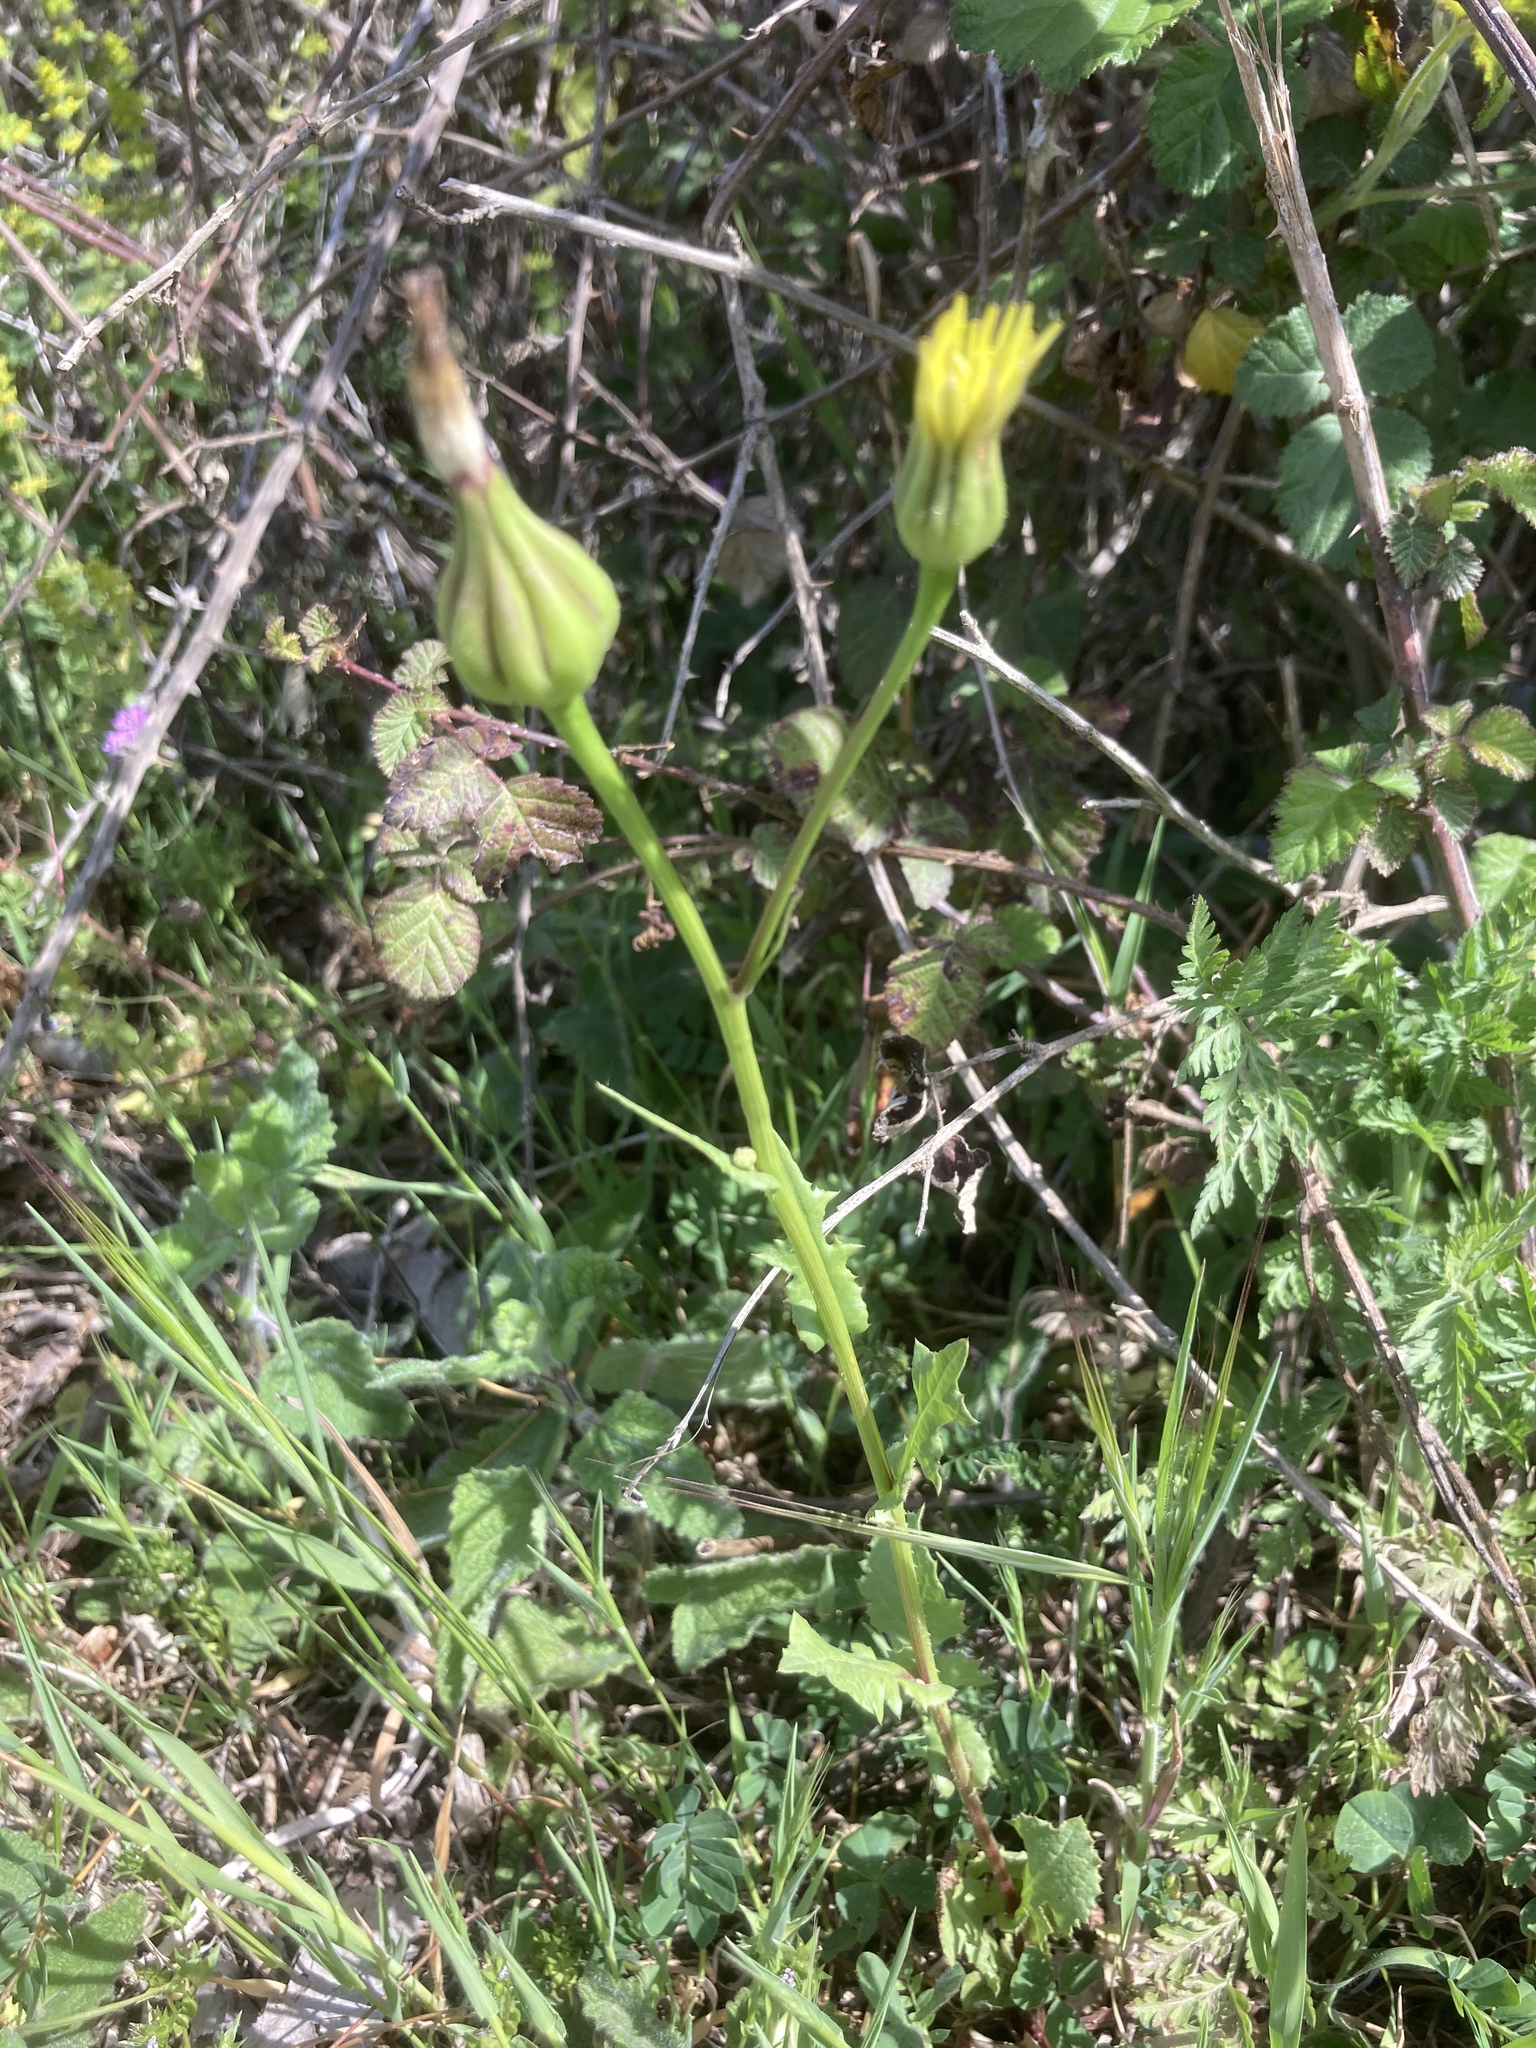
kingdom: Plantae
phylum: Tracheophyta
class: Magnoliopsida
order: Asterales
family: Asteraceae
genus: Urospermum
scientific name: Urospermum picroides
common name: False hawkbit
